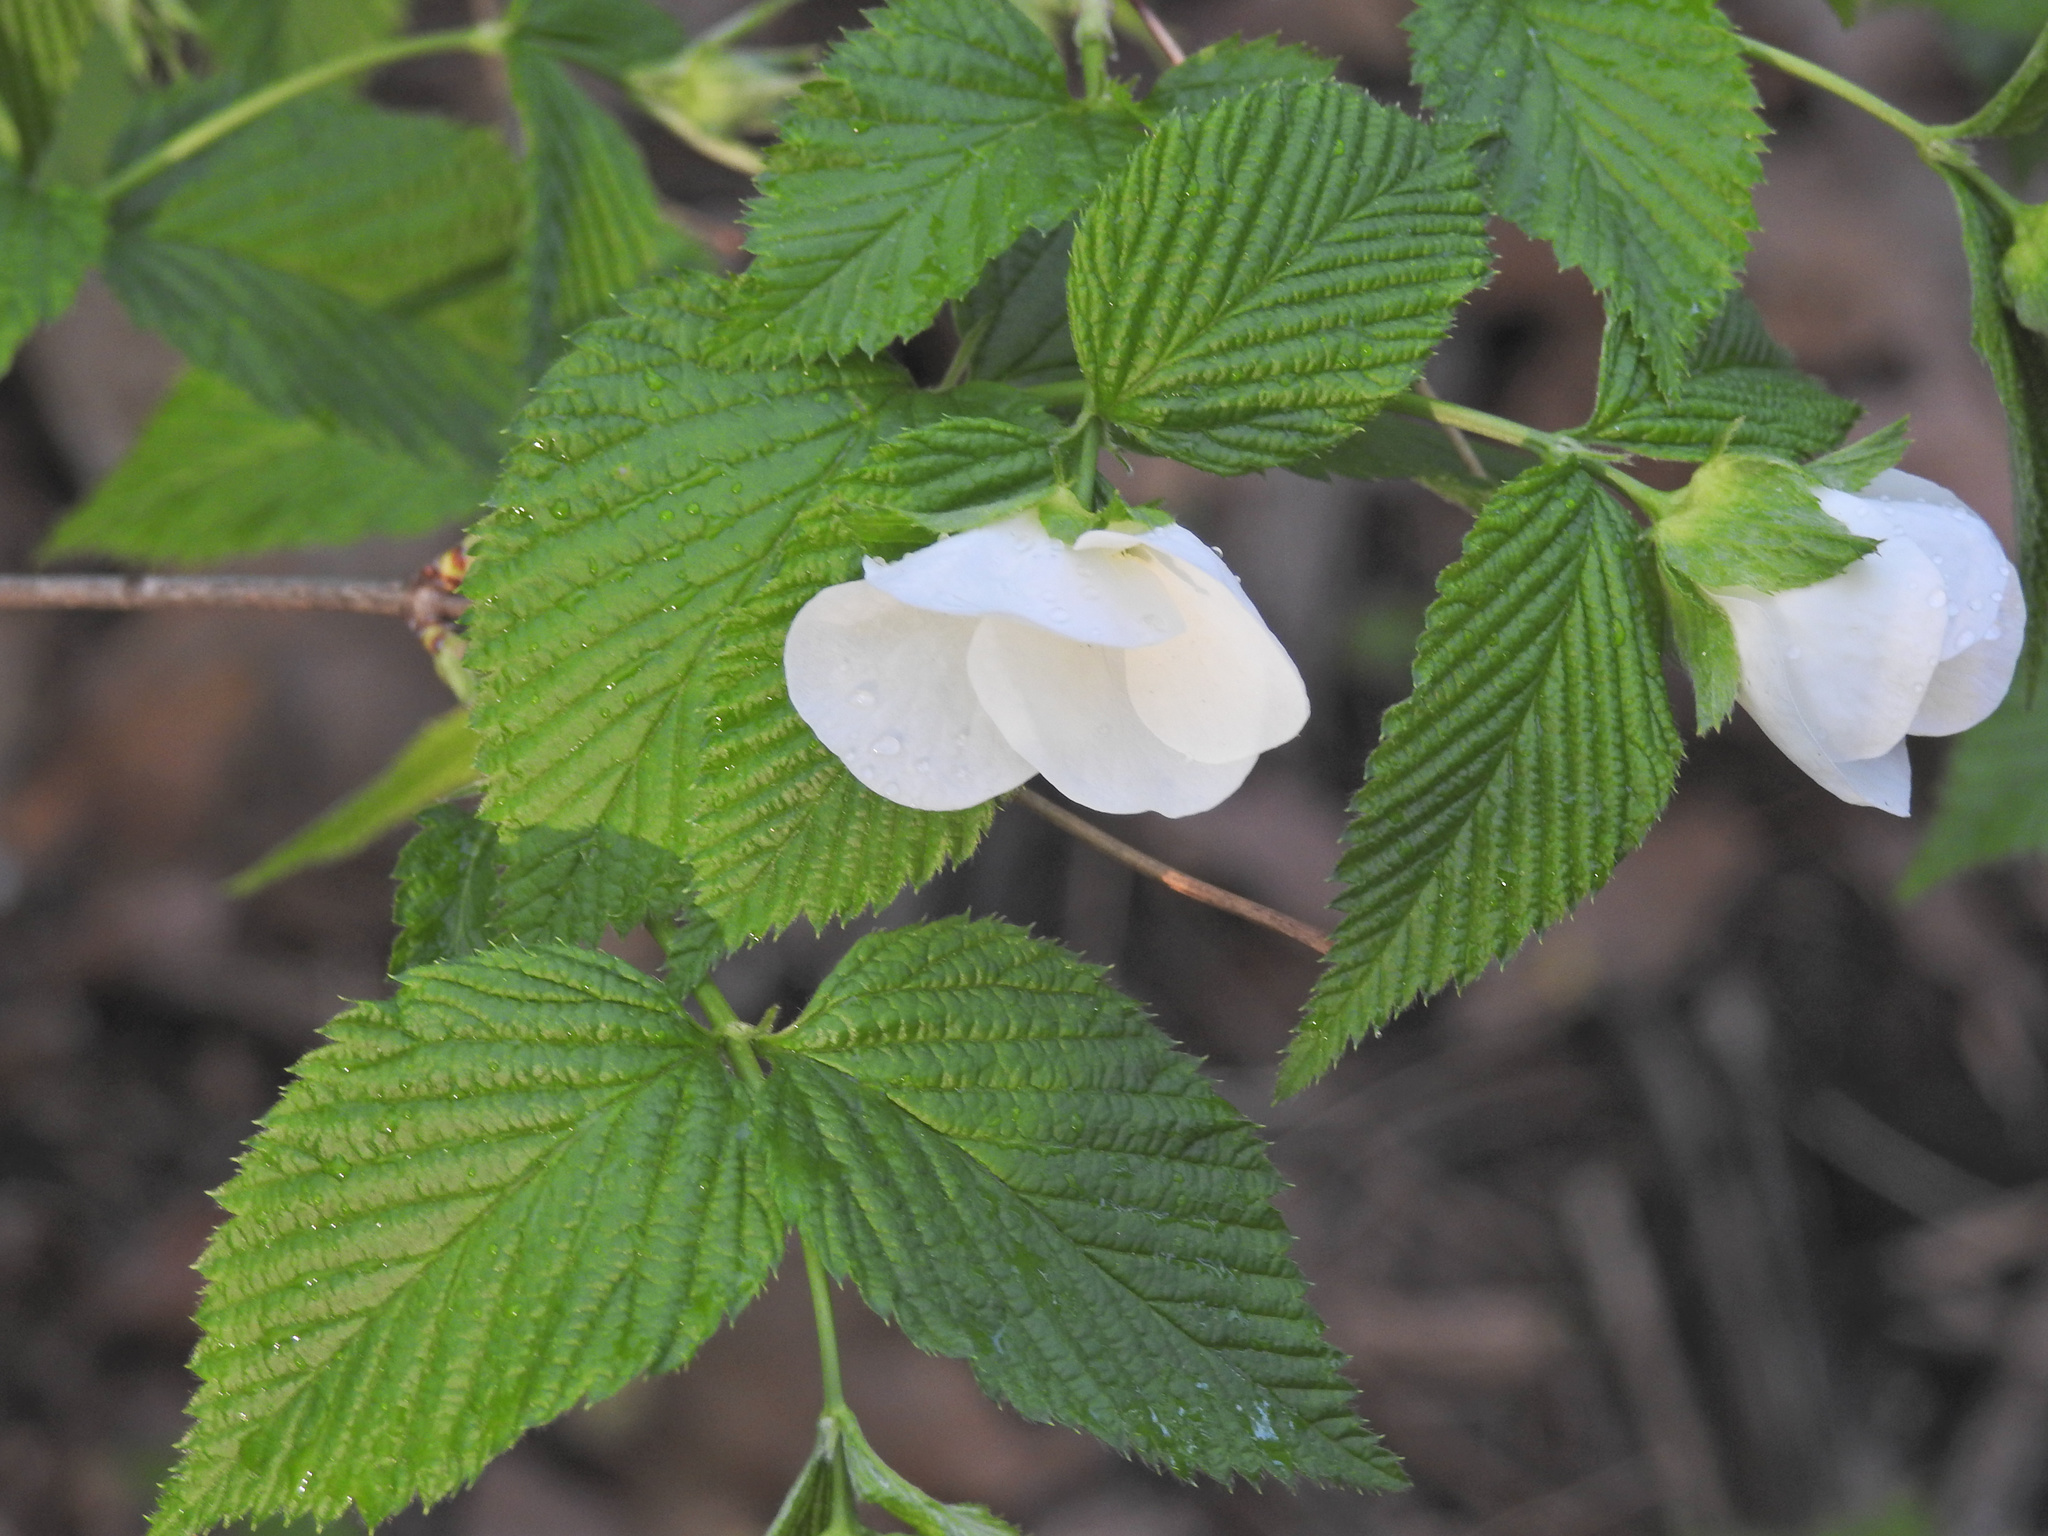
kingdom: Plantae
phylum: Tracheophyta
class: Magnoliopsida
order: Rosales
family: Rosaceae
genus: Rhodotypos
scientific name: Rhodotypos scandens
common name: Jetbead
